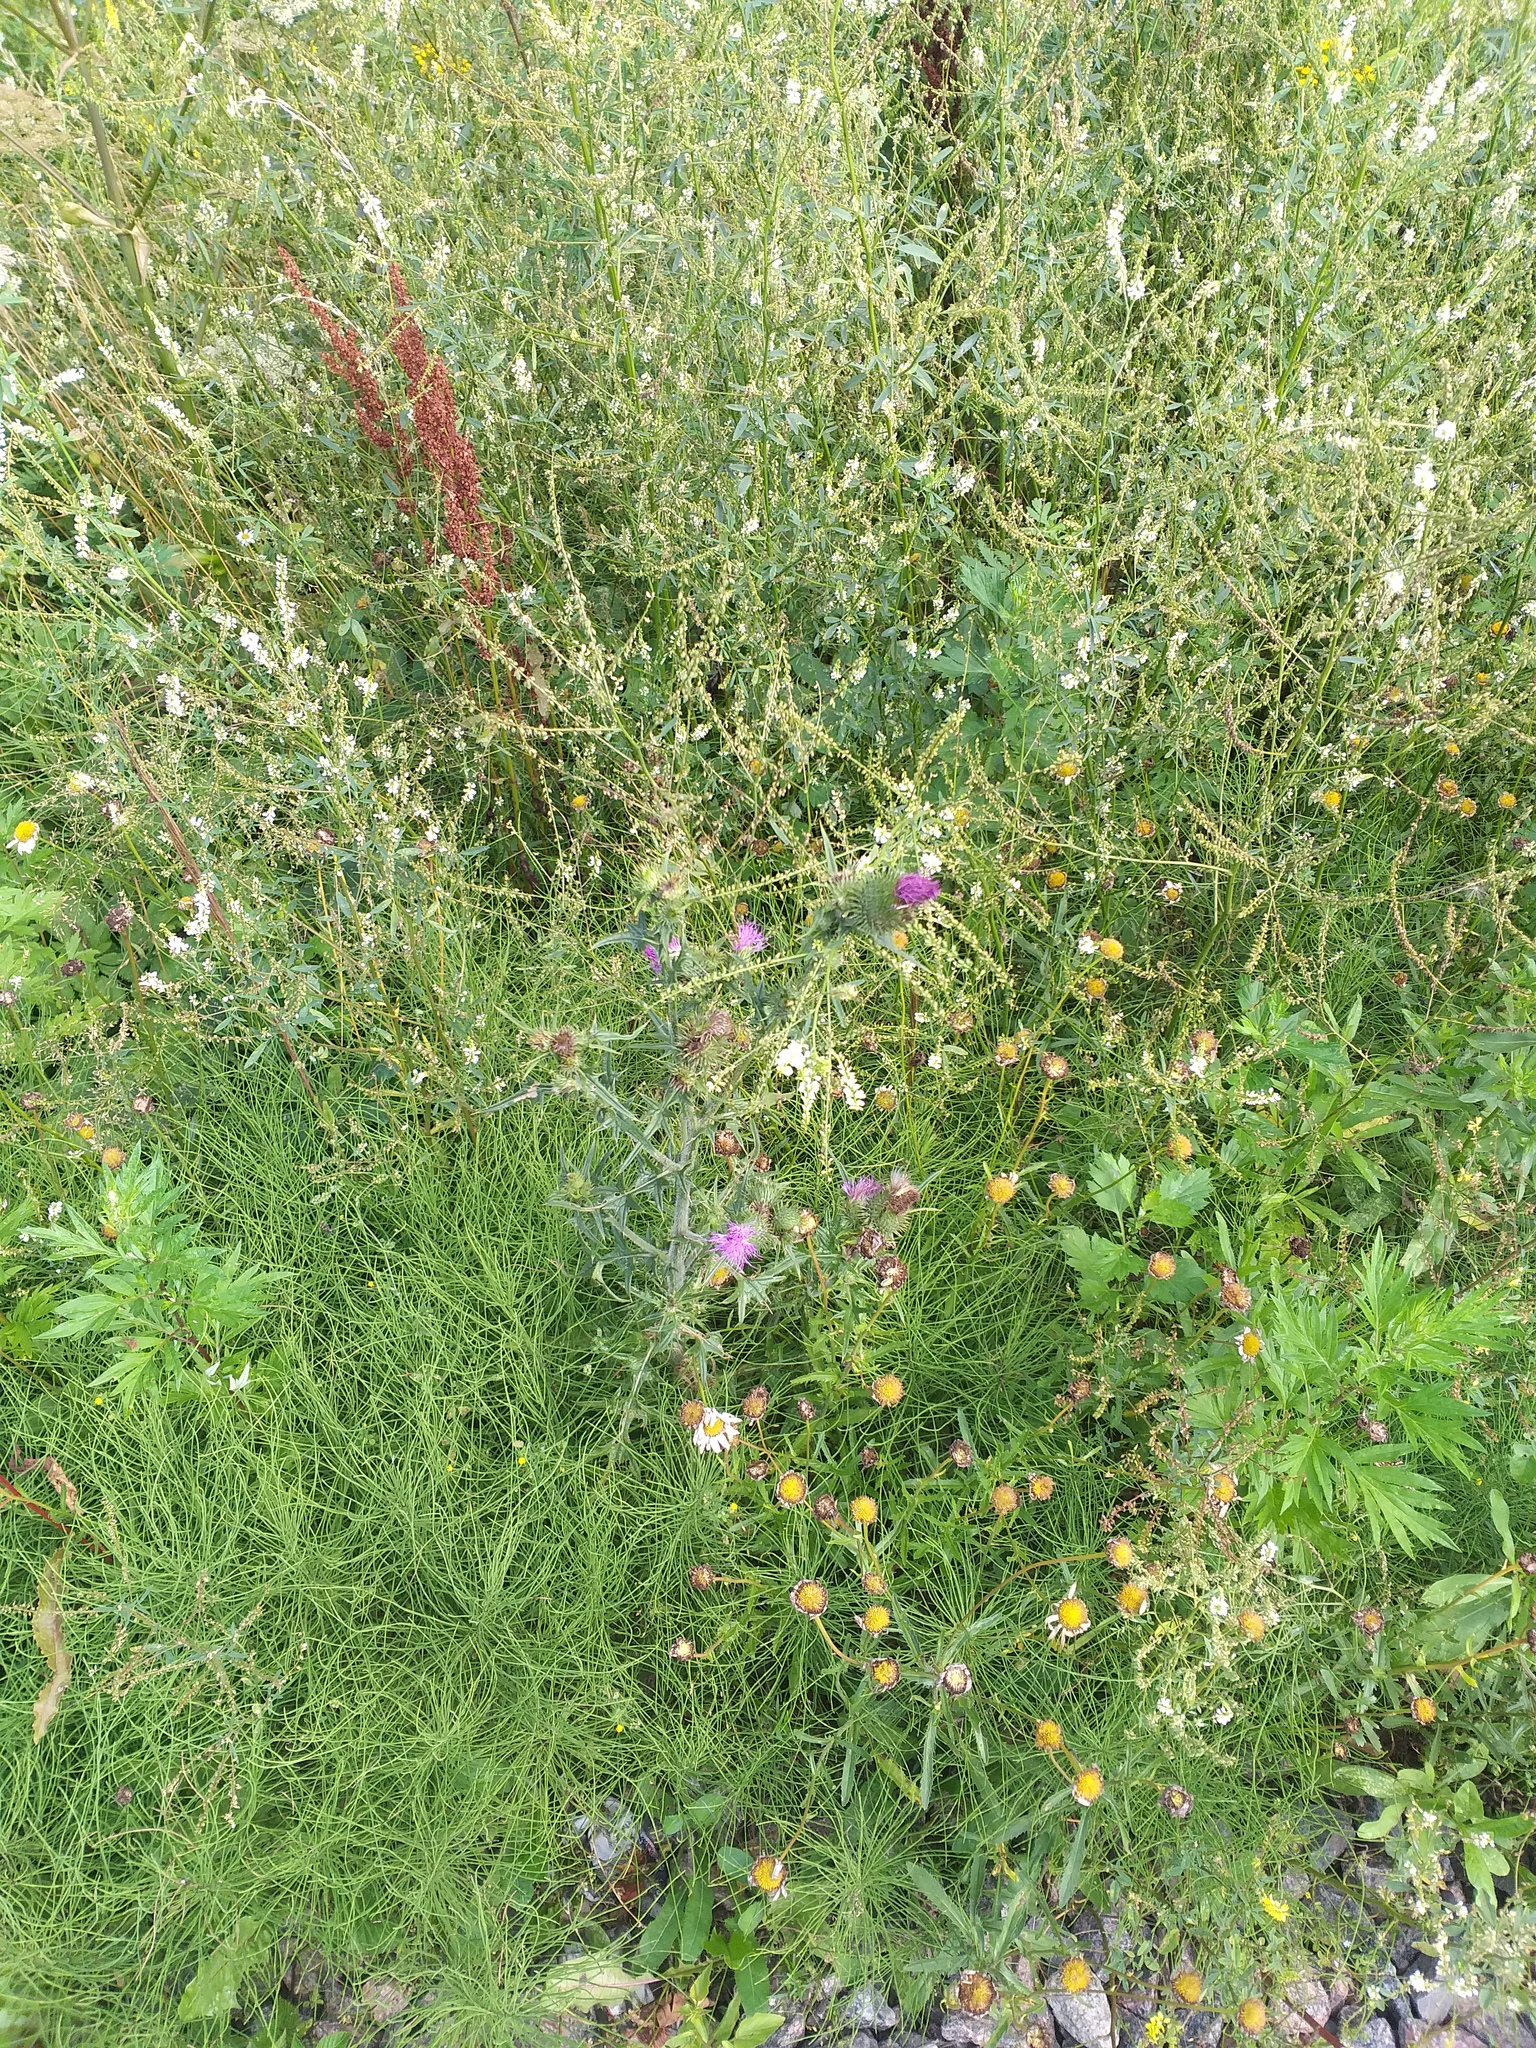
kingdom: Plantae
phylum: Tracheophyta
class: Magnoliopsida
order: Asterales
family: Asteraceae
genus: Cirsium
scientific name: Cirsium vulgare
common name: Bull thistle
